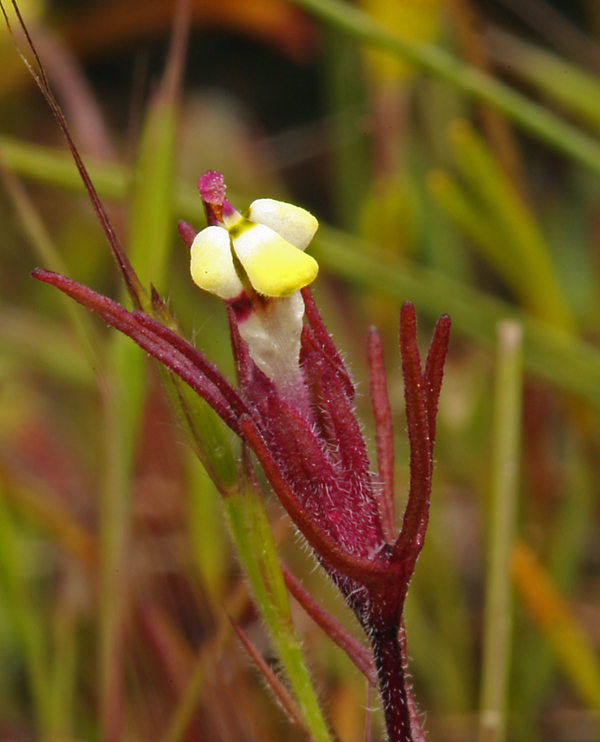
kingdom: Plantae
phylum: Tracheophyta
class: Magnoliopsida
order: Lamiales
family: Orobanchaceae
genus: Triphysaria
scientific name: Triphysaria micrantha
